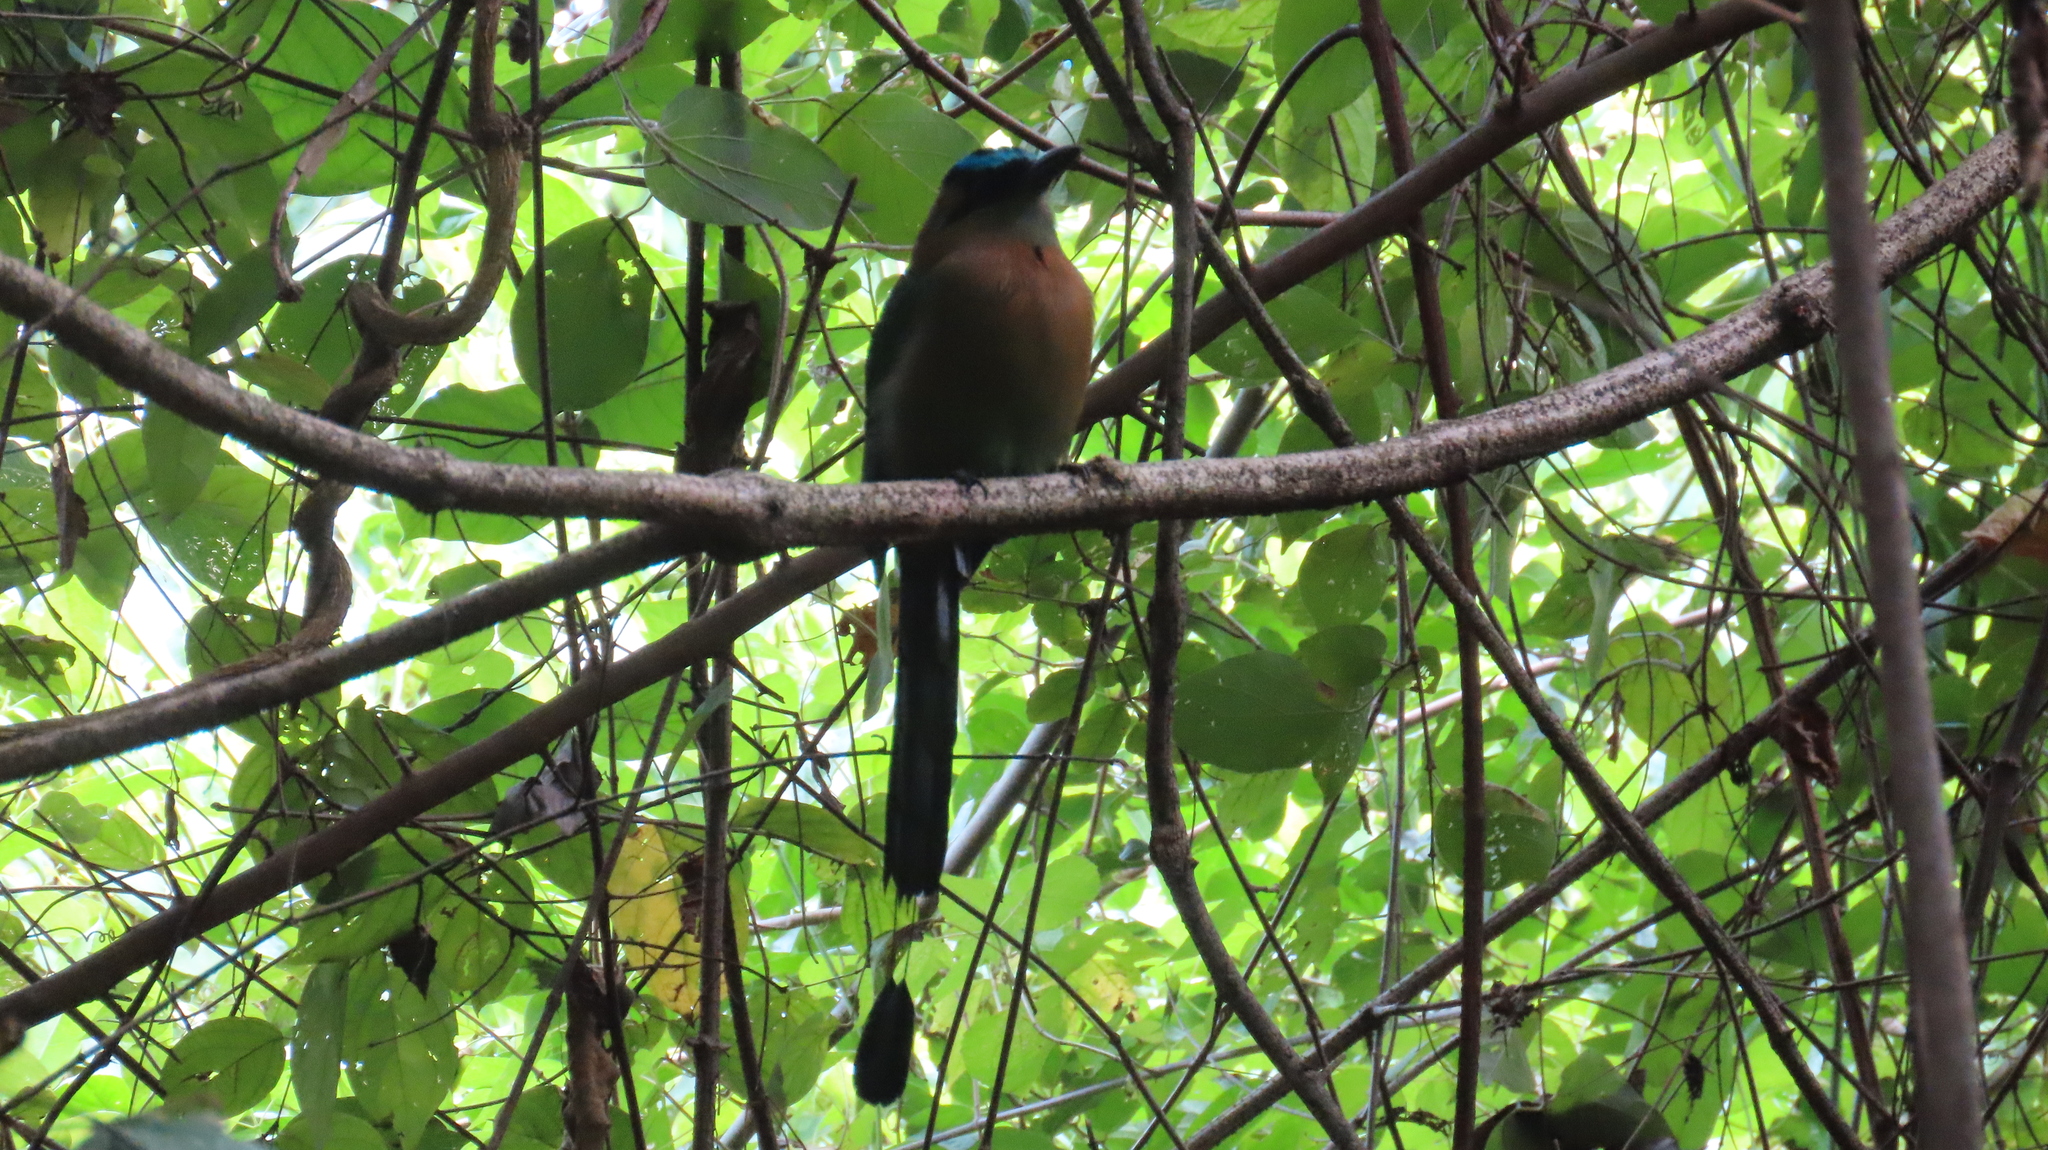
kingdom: Animalia
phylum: Chordata
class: Aves
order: Coraciiformes
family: Momotidae
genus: Momotus
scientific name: Momotus lessonii
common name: Lesson's motmot
